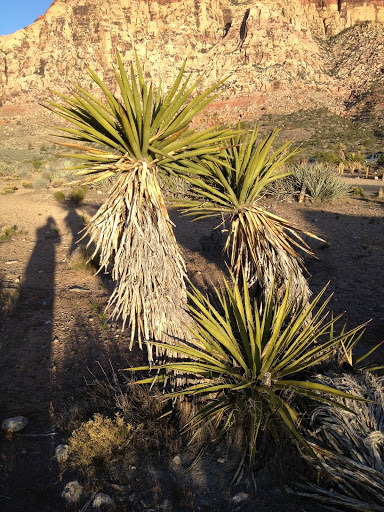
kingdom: Plantae
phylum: Tracheophyta
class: Liliopsida
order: Asparagales
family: Asparagaceae
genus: Yucca
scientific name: Yucca schidigera
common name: Mojave yucca
